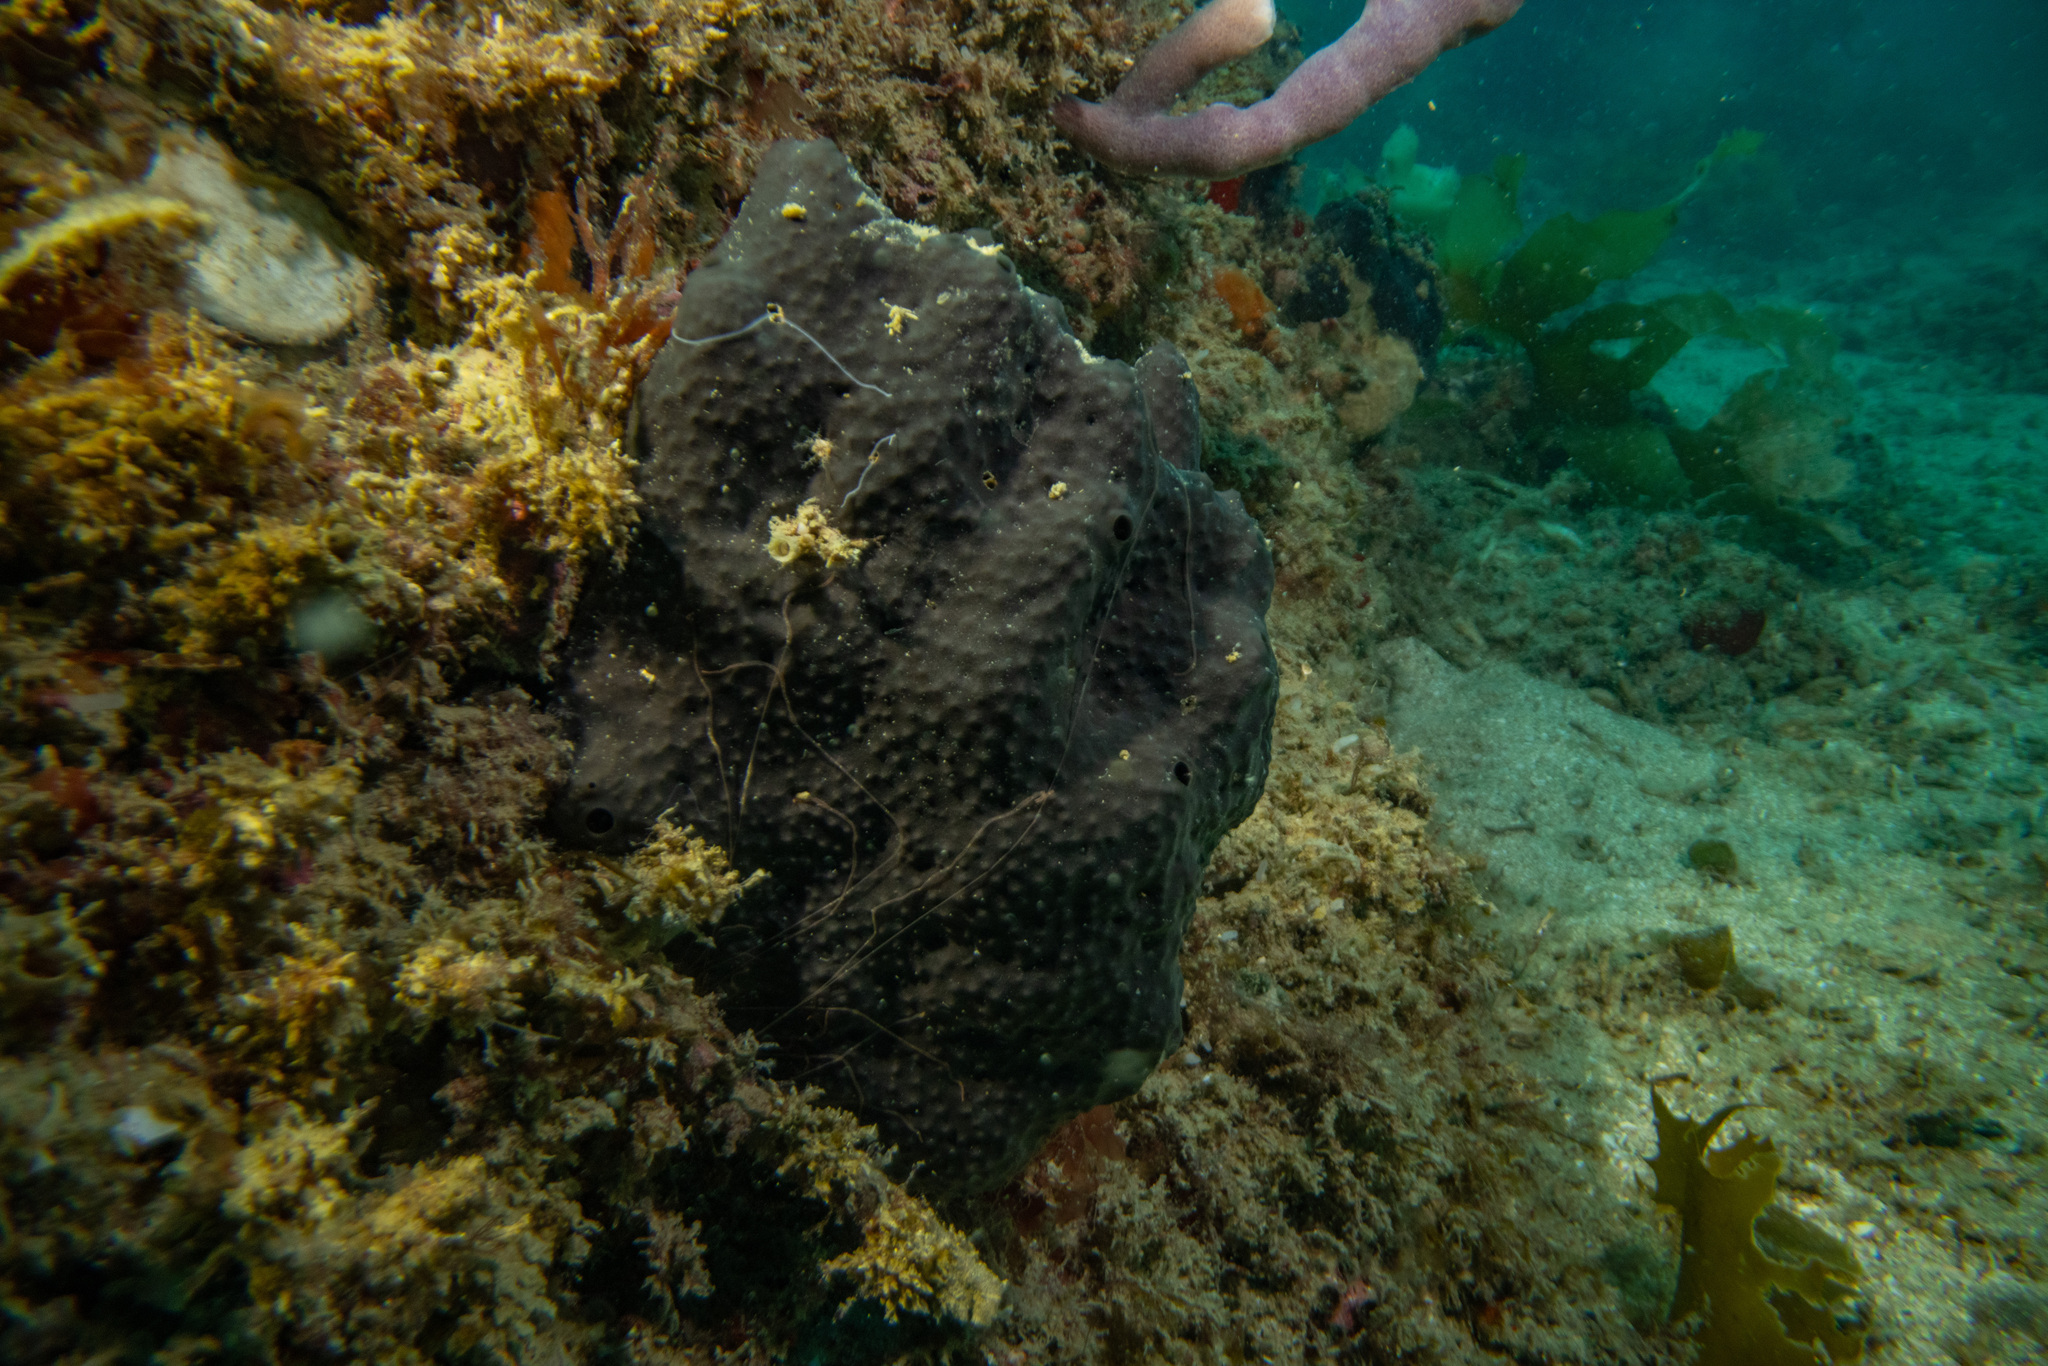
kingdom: Animalia
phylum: Porifera
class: Demospongiae
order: Dictyoceratida
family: Irciniidae
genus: Ircinia
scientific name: Ircinia novaezealandiae
